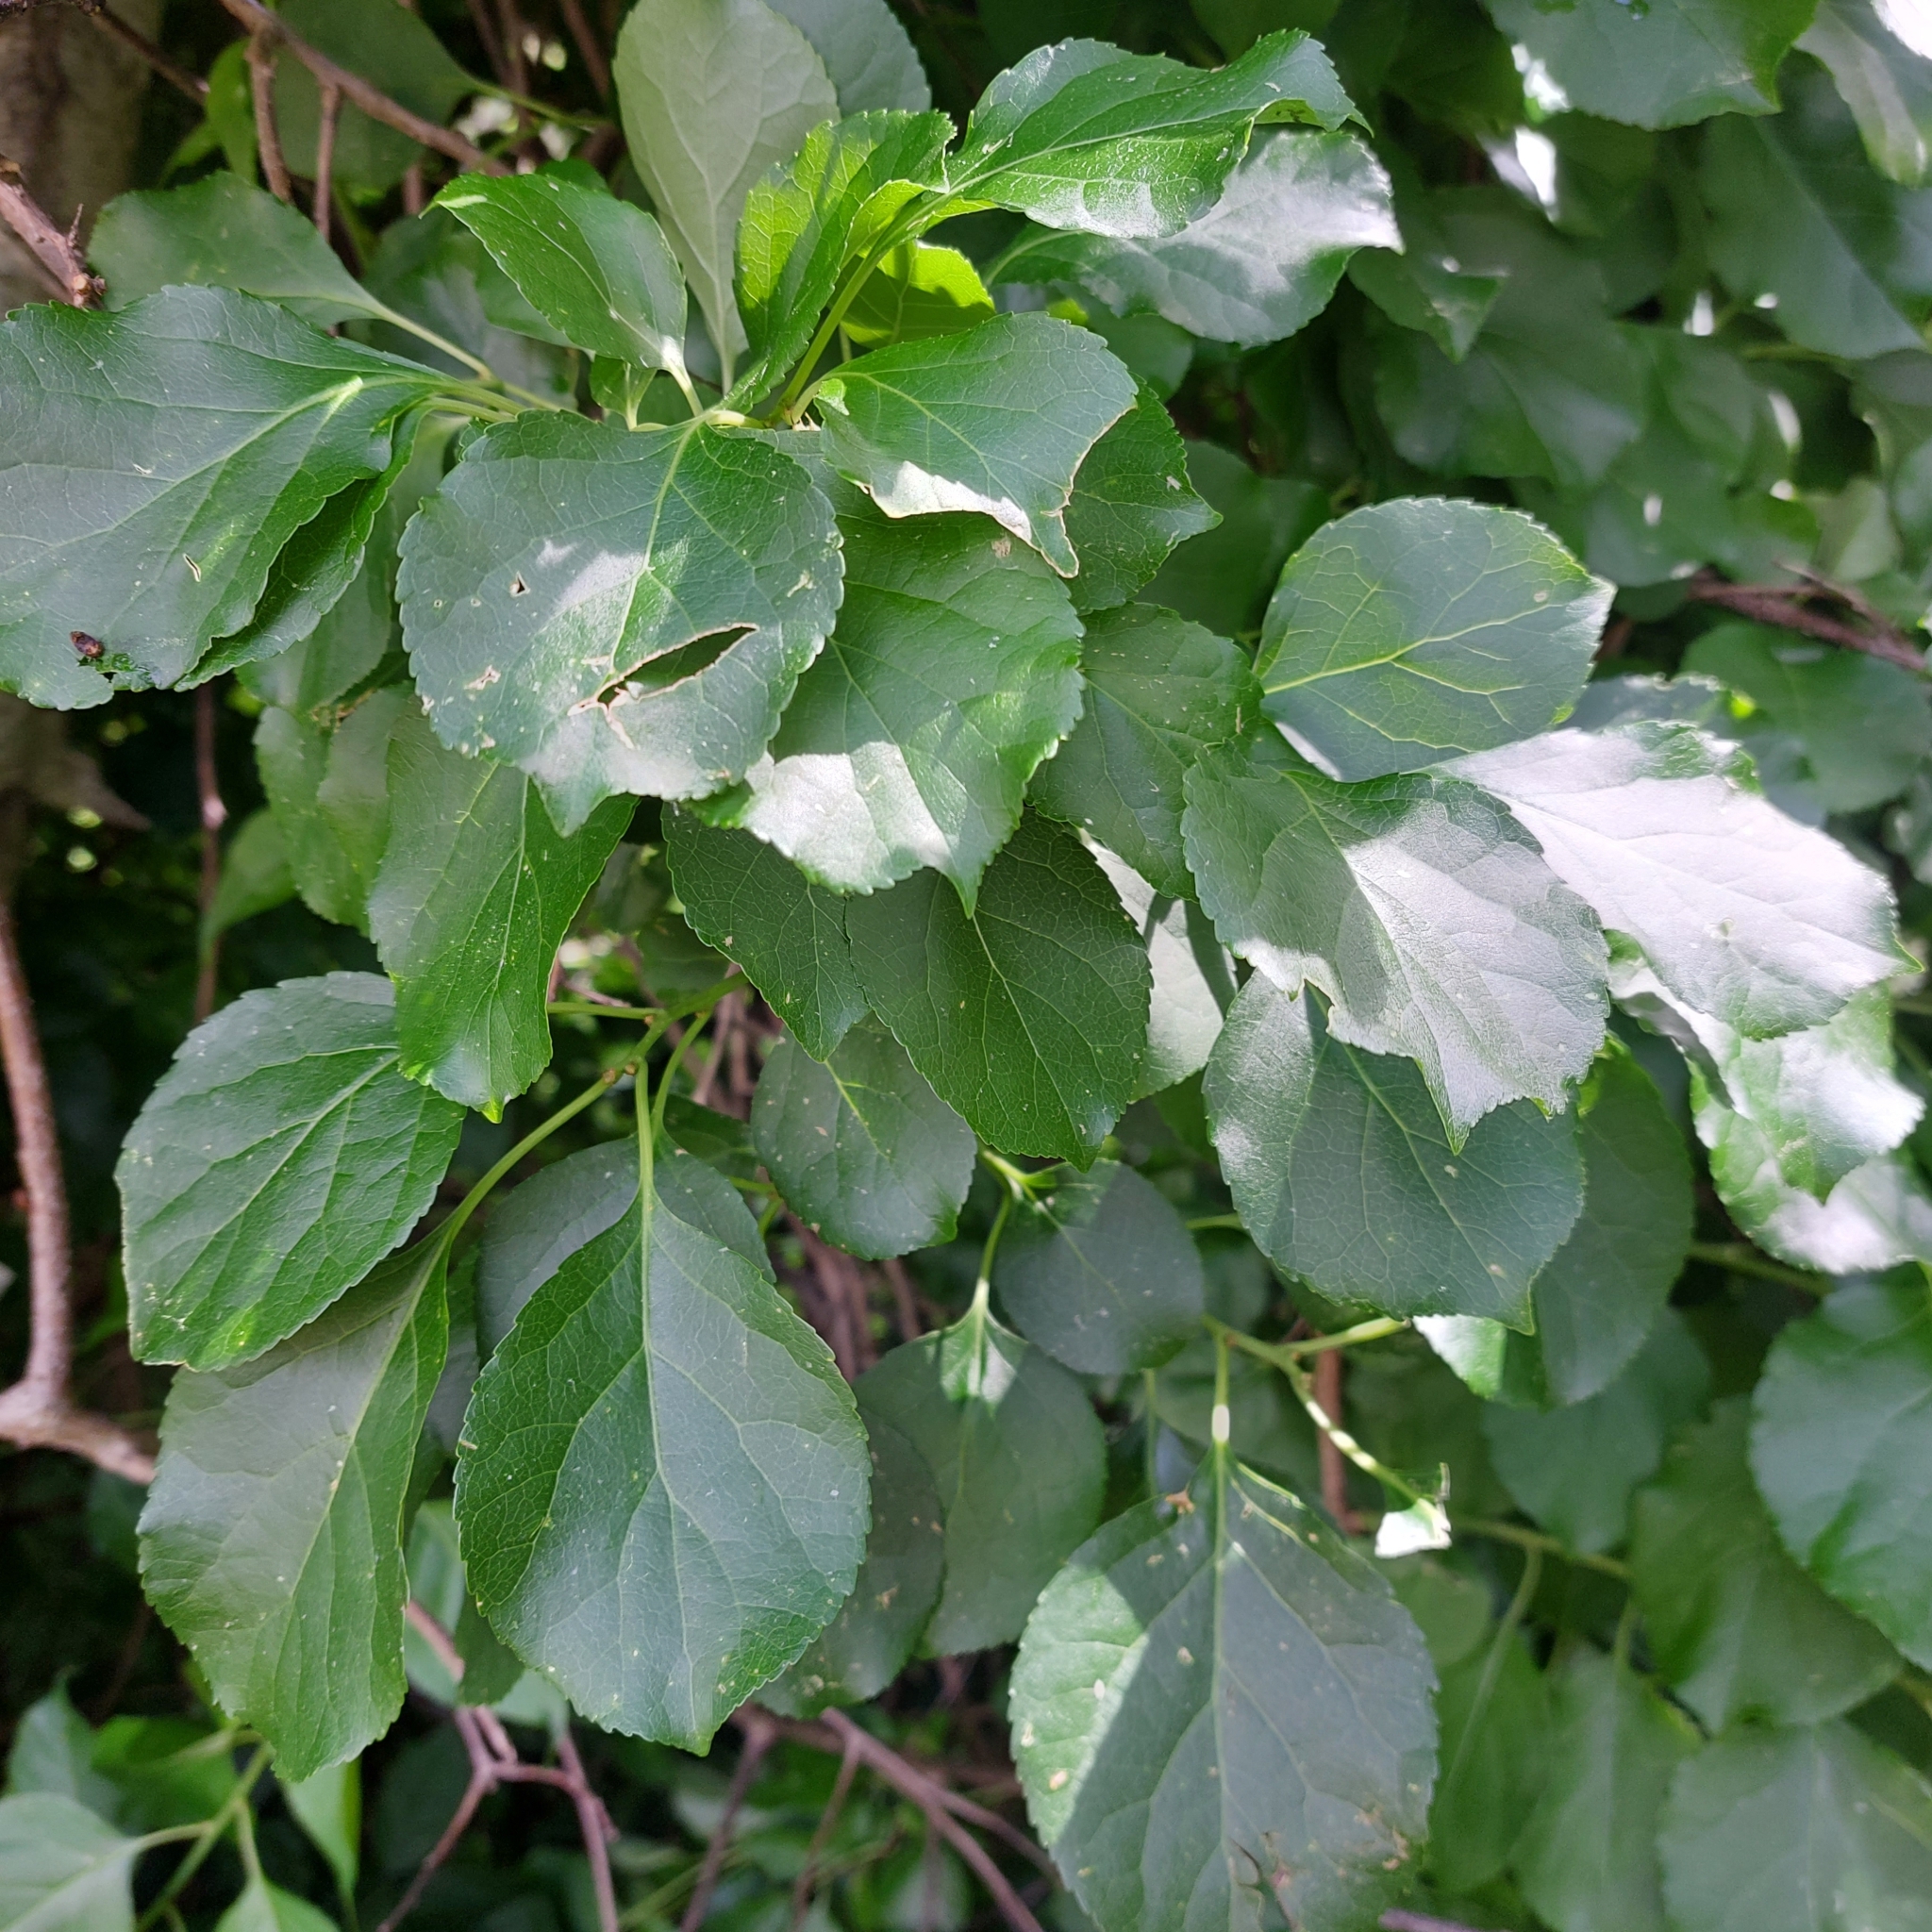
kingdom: Plantae
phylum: Tracheophyta
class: Magnoliopsida
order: Celastrales
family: Celastraceae
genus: Celastrus
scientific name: Celastrus orbiculatus
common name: Oriental bittersweet
